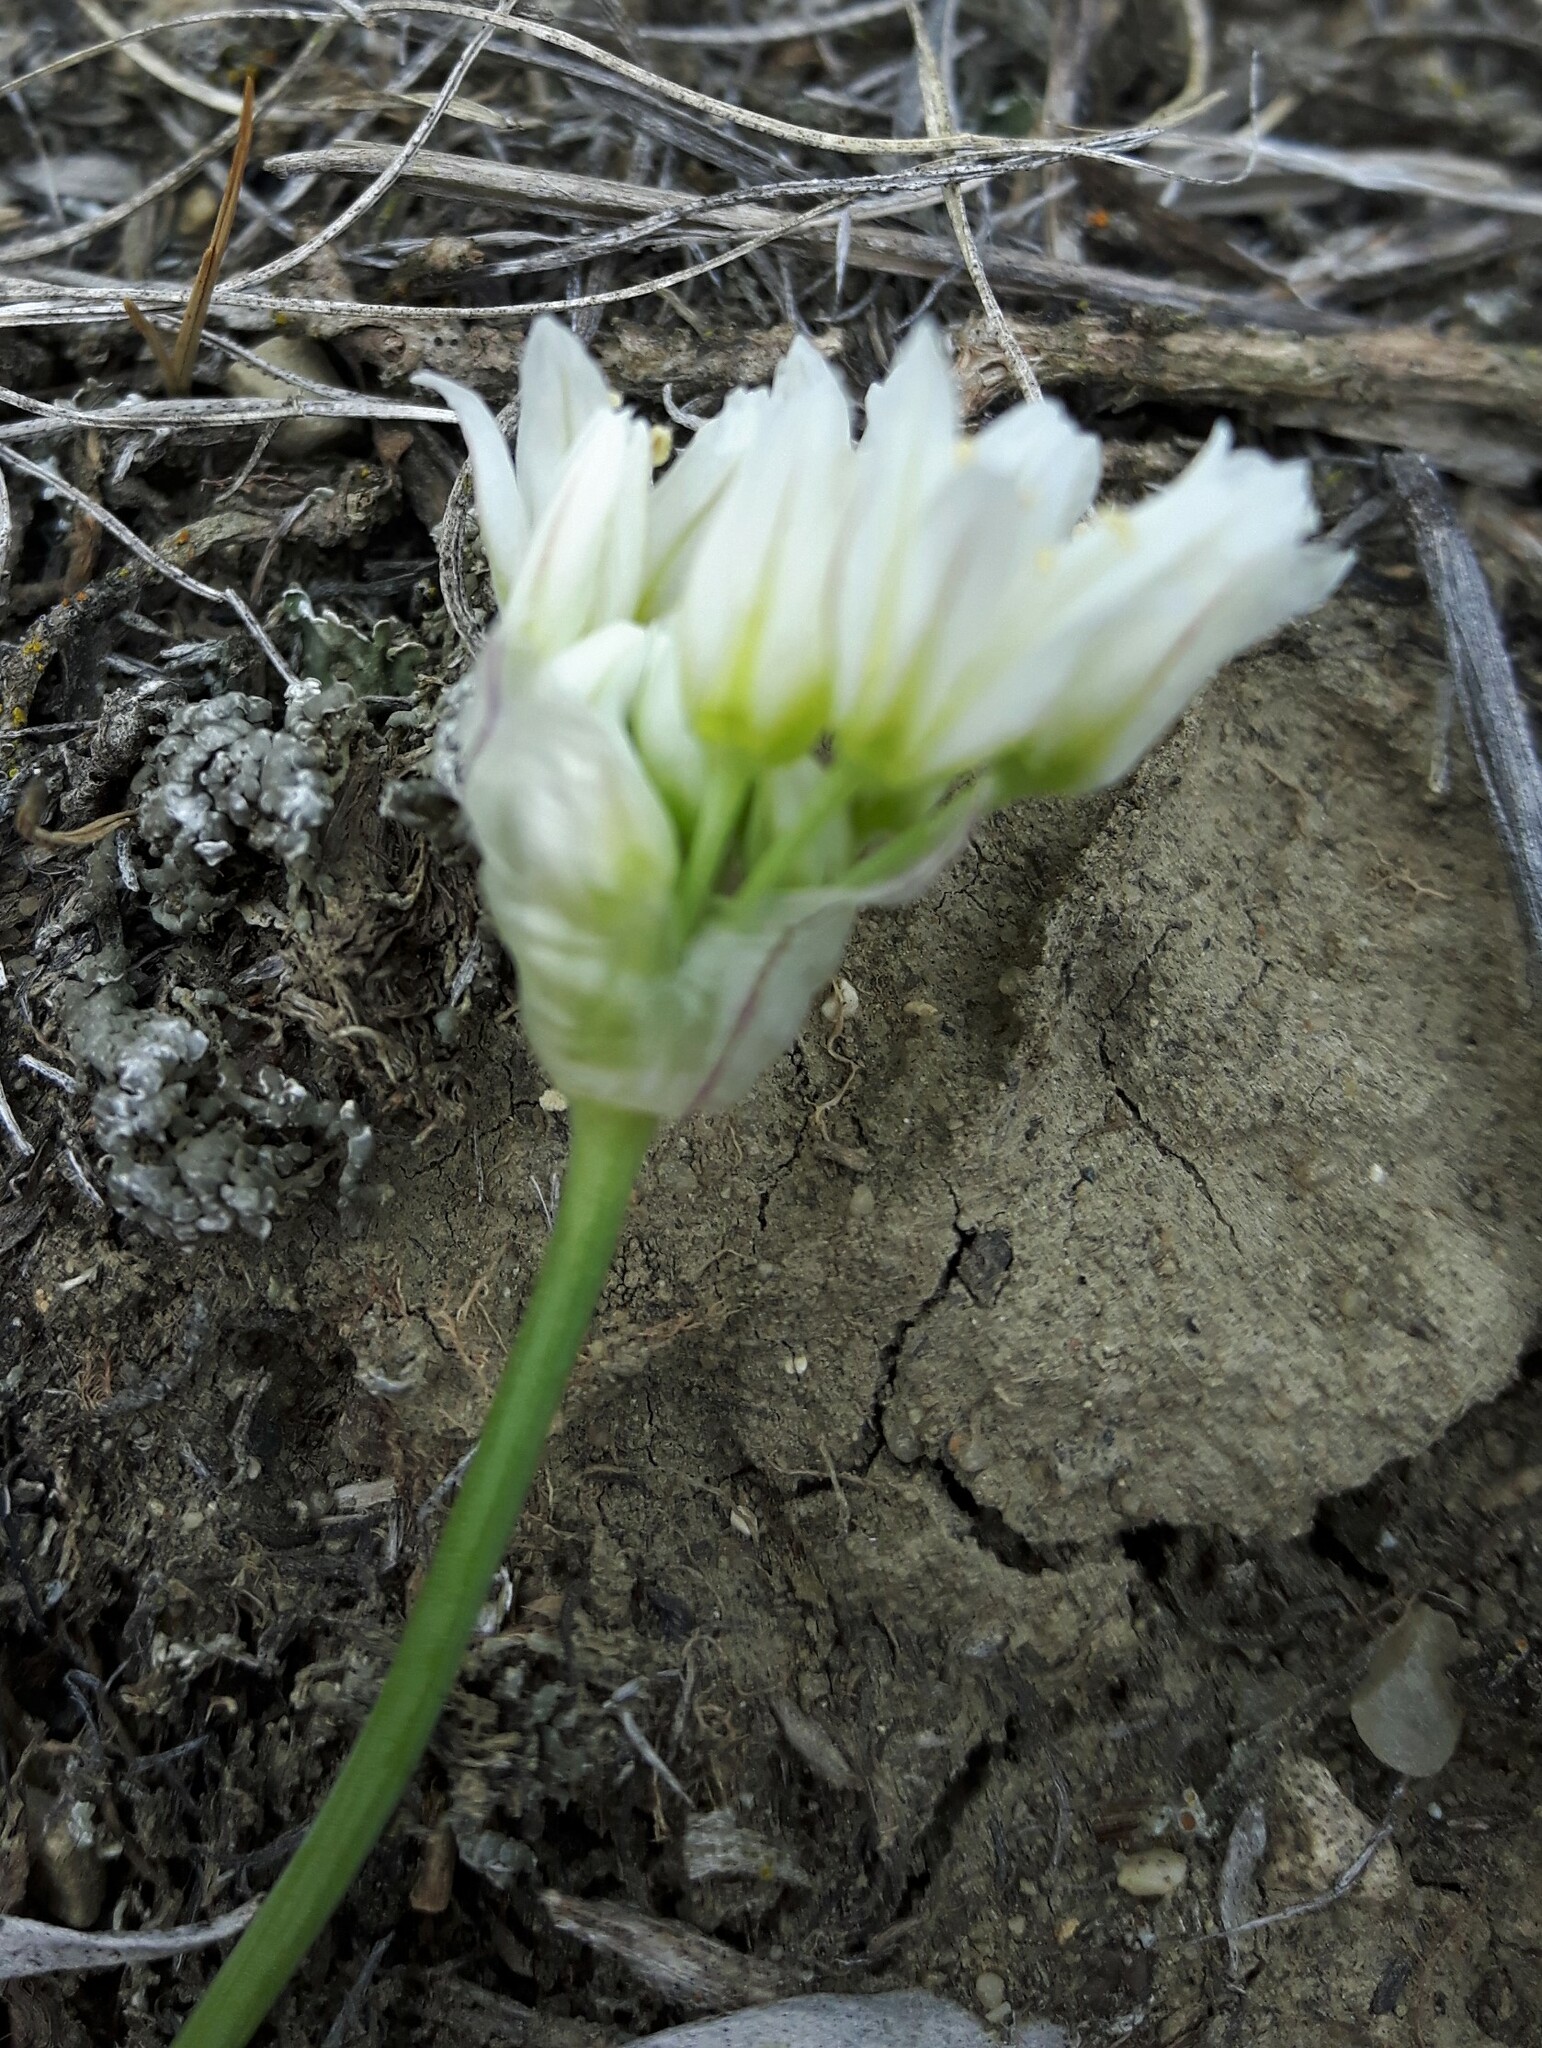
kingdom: Plantae
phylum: Tracheophyta
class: Liliopsida
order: Asparagales
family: Amaryllidaceae
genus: Allium
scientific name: Allium textile
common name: Prairie onion
